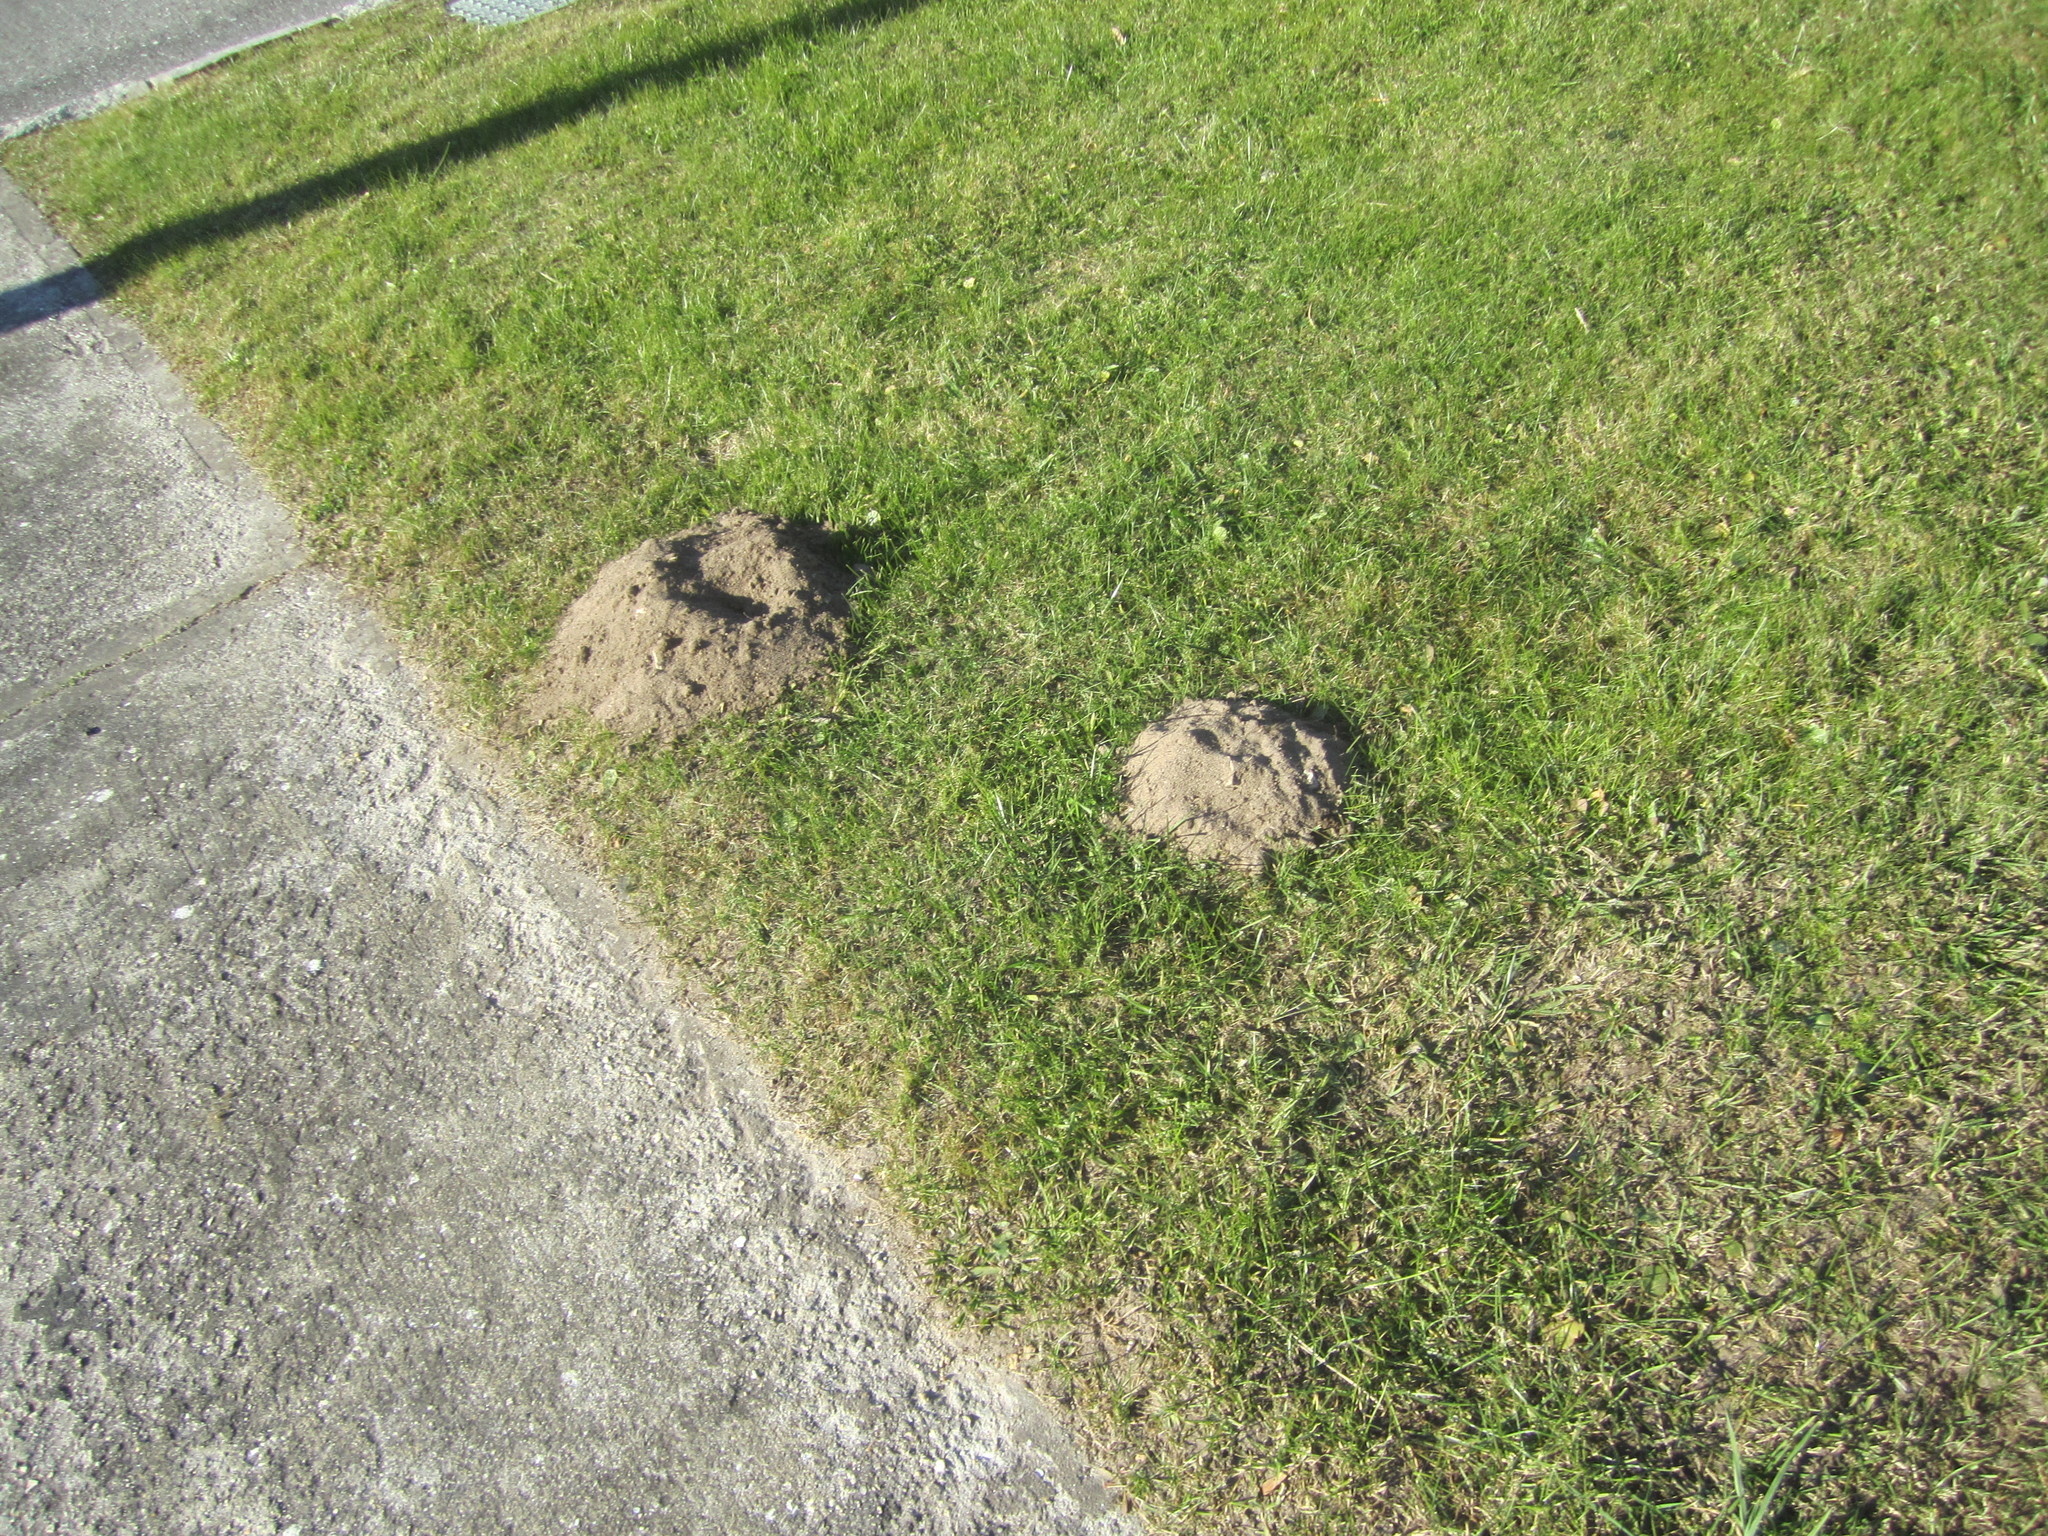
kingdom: Animalia
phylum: Chordata
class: Mammalia
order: Soricomorpha
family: Talpidae
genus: Talpa
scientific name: Talpa occidentalis
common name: Iberian mole
